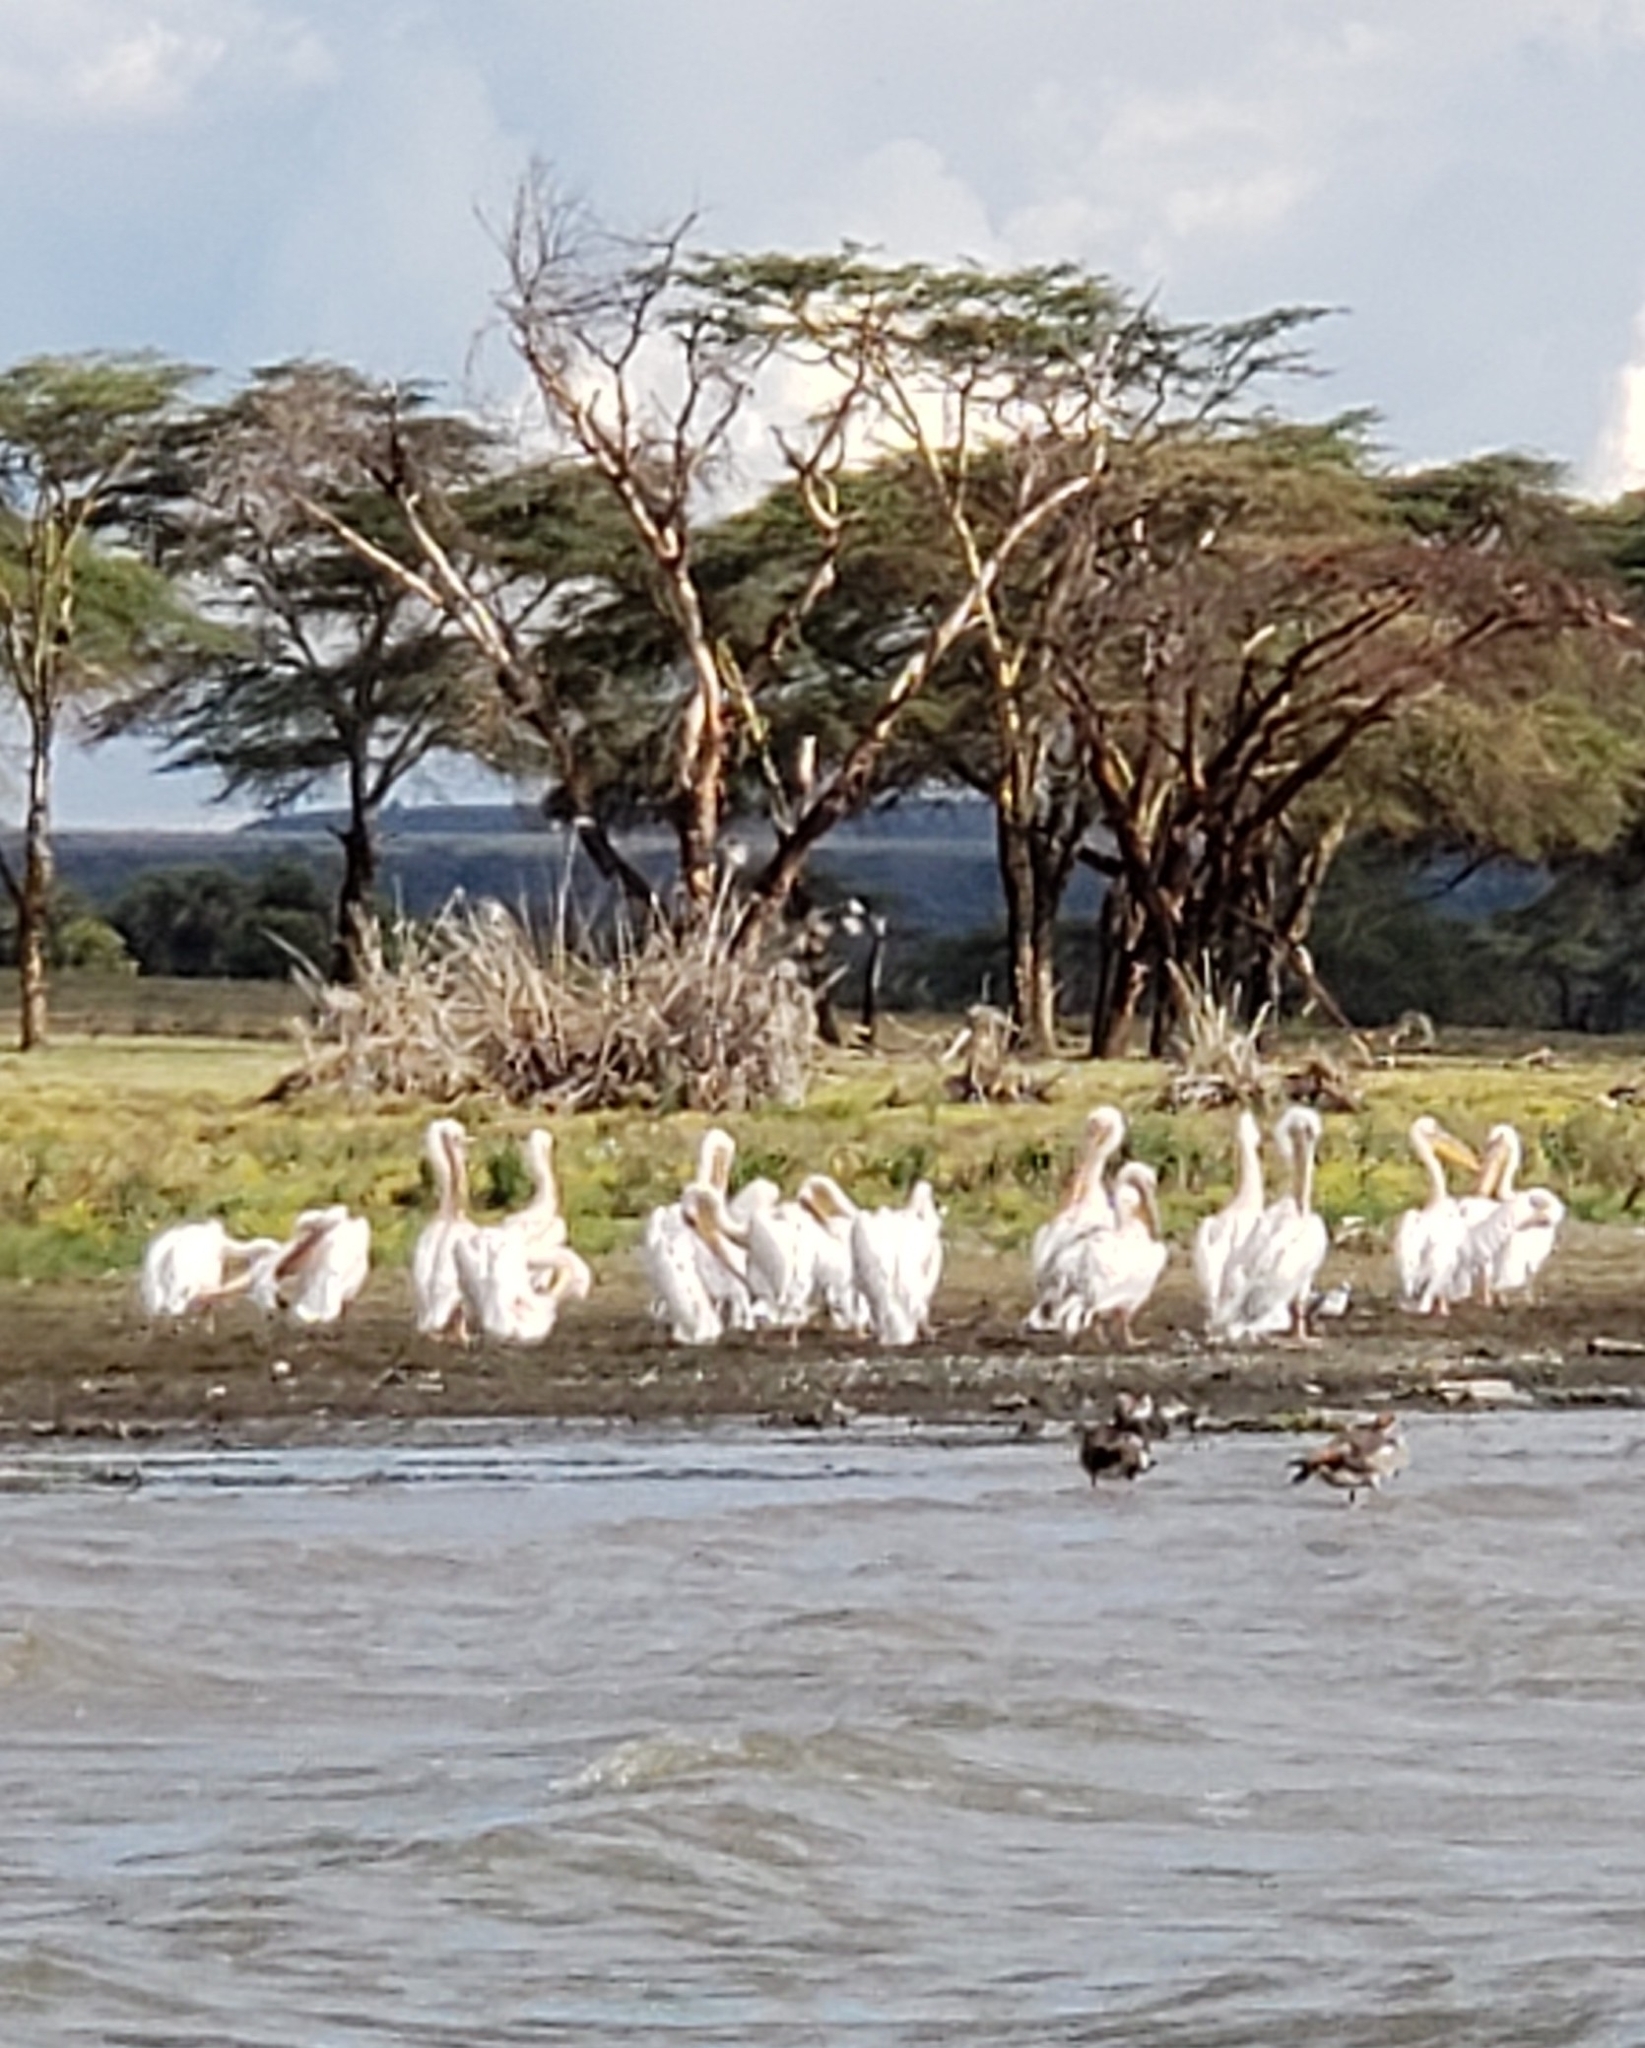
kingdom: Animalia
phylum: Chordata
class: Aves
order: Pelecaniformes
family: Pelecanidae
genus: Pelecanus
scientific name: Pelecanus onocrotalus
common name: Great white pelican
